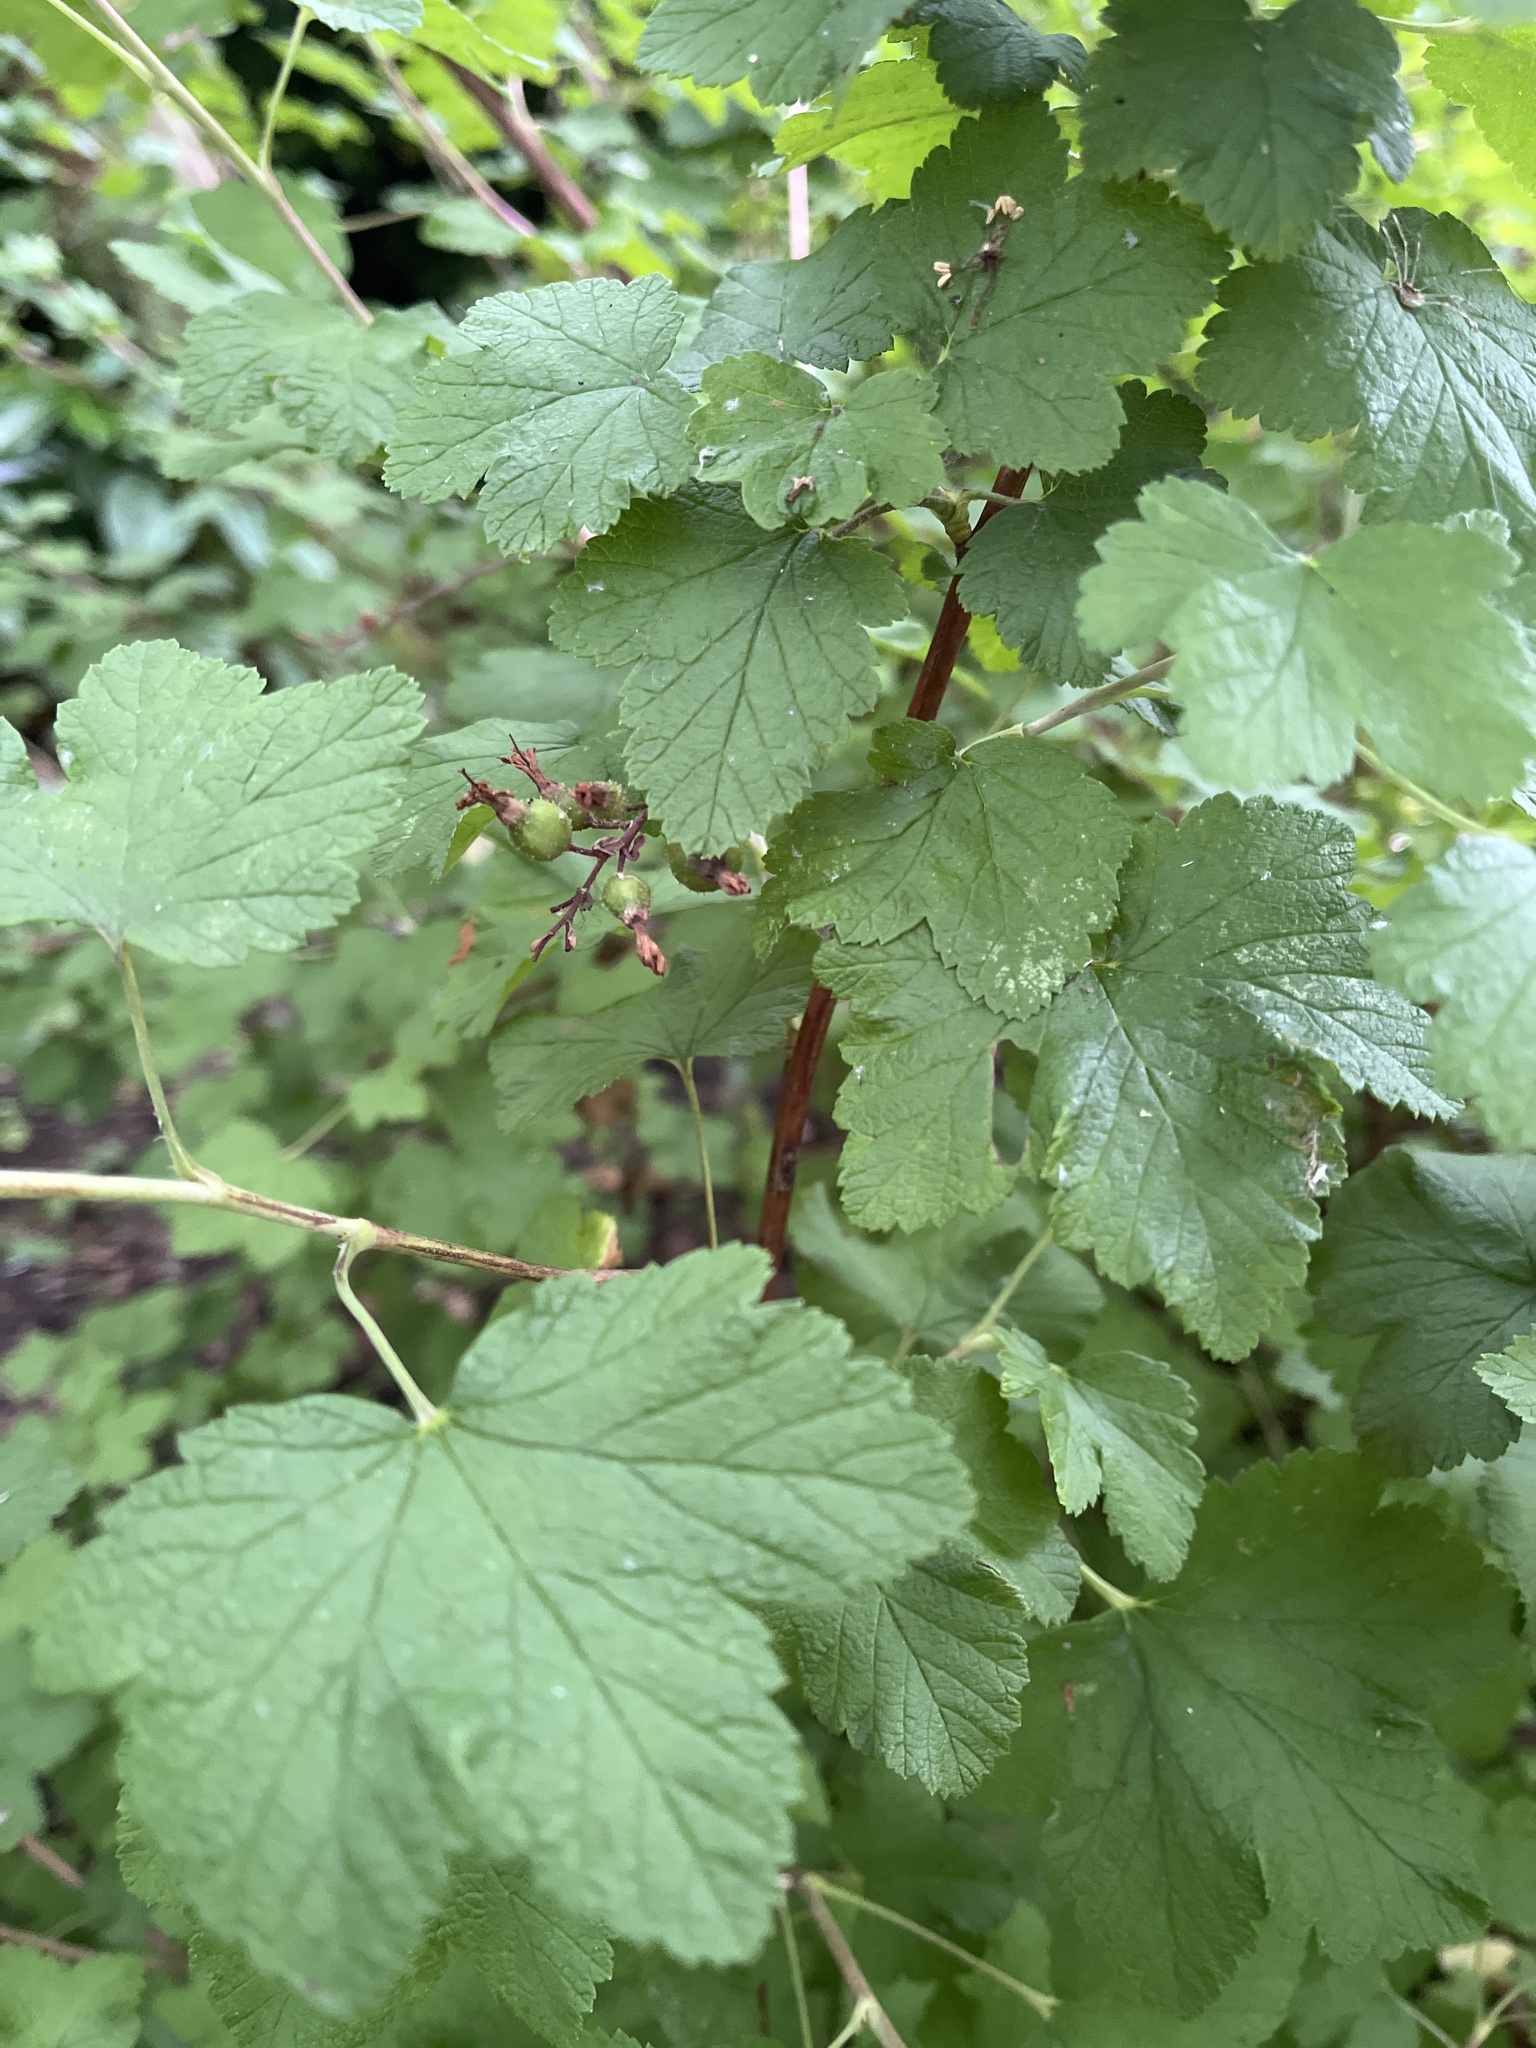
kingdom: Plantae
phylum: Tracheophyta
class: Magnoliopsida
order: Saxifragales
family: Grossulariaceae
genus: Ribes
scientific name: Ribes sanguineum
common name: Flowering currant
